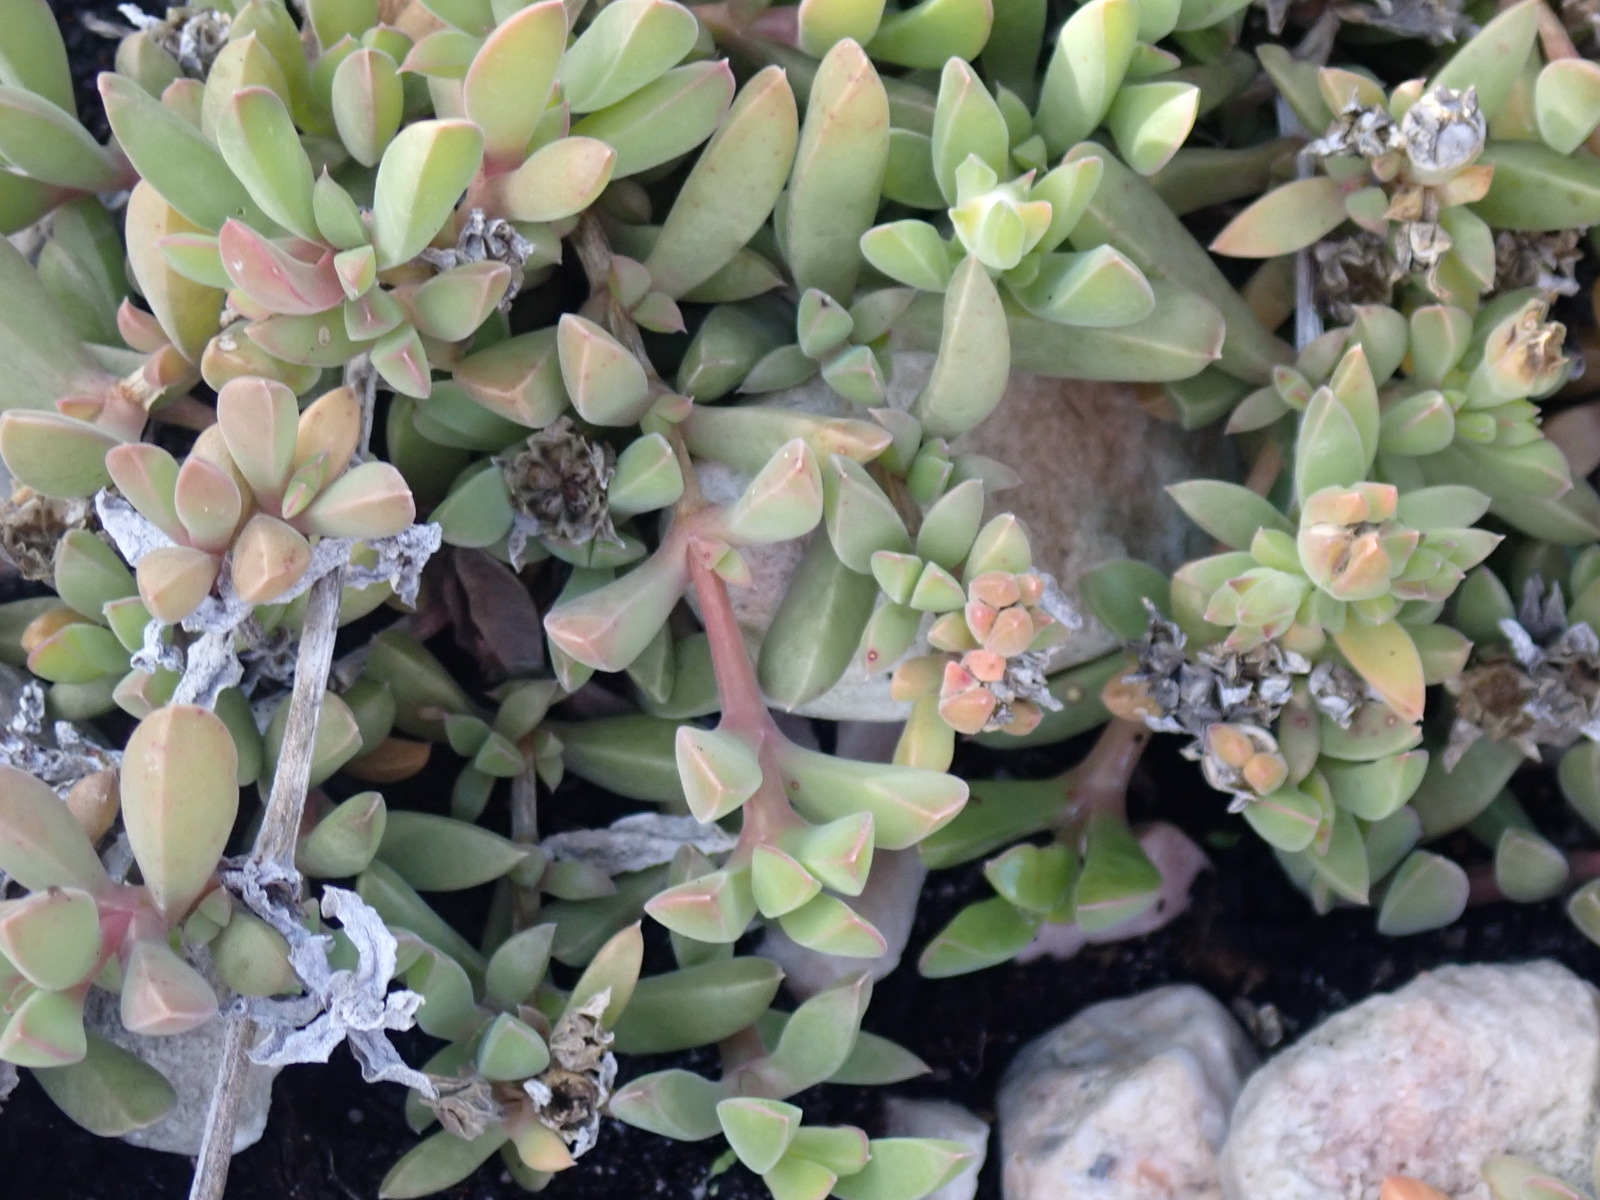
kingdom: Plantae
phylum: Tracheophyta
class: Magnoliopsida
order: Caryophyllales
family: Aizoaceae
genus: Delosperma
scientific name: Delosperma litorale
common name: Seaside delosperma
